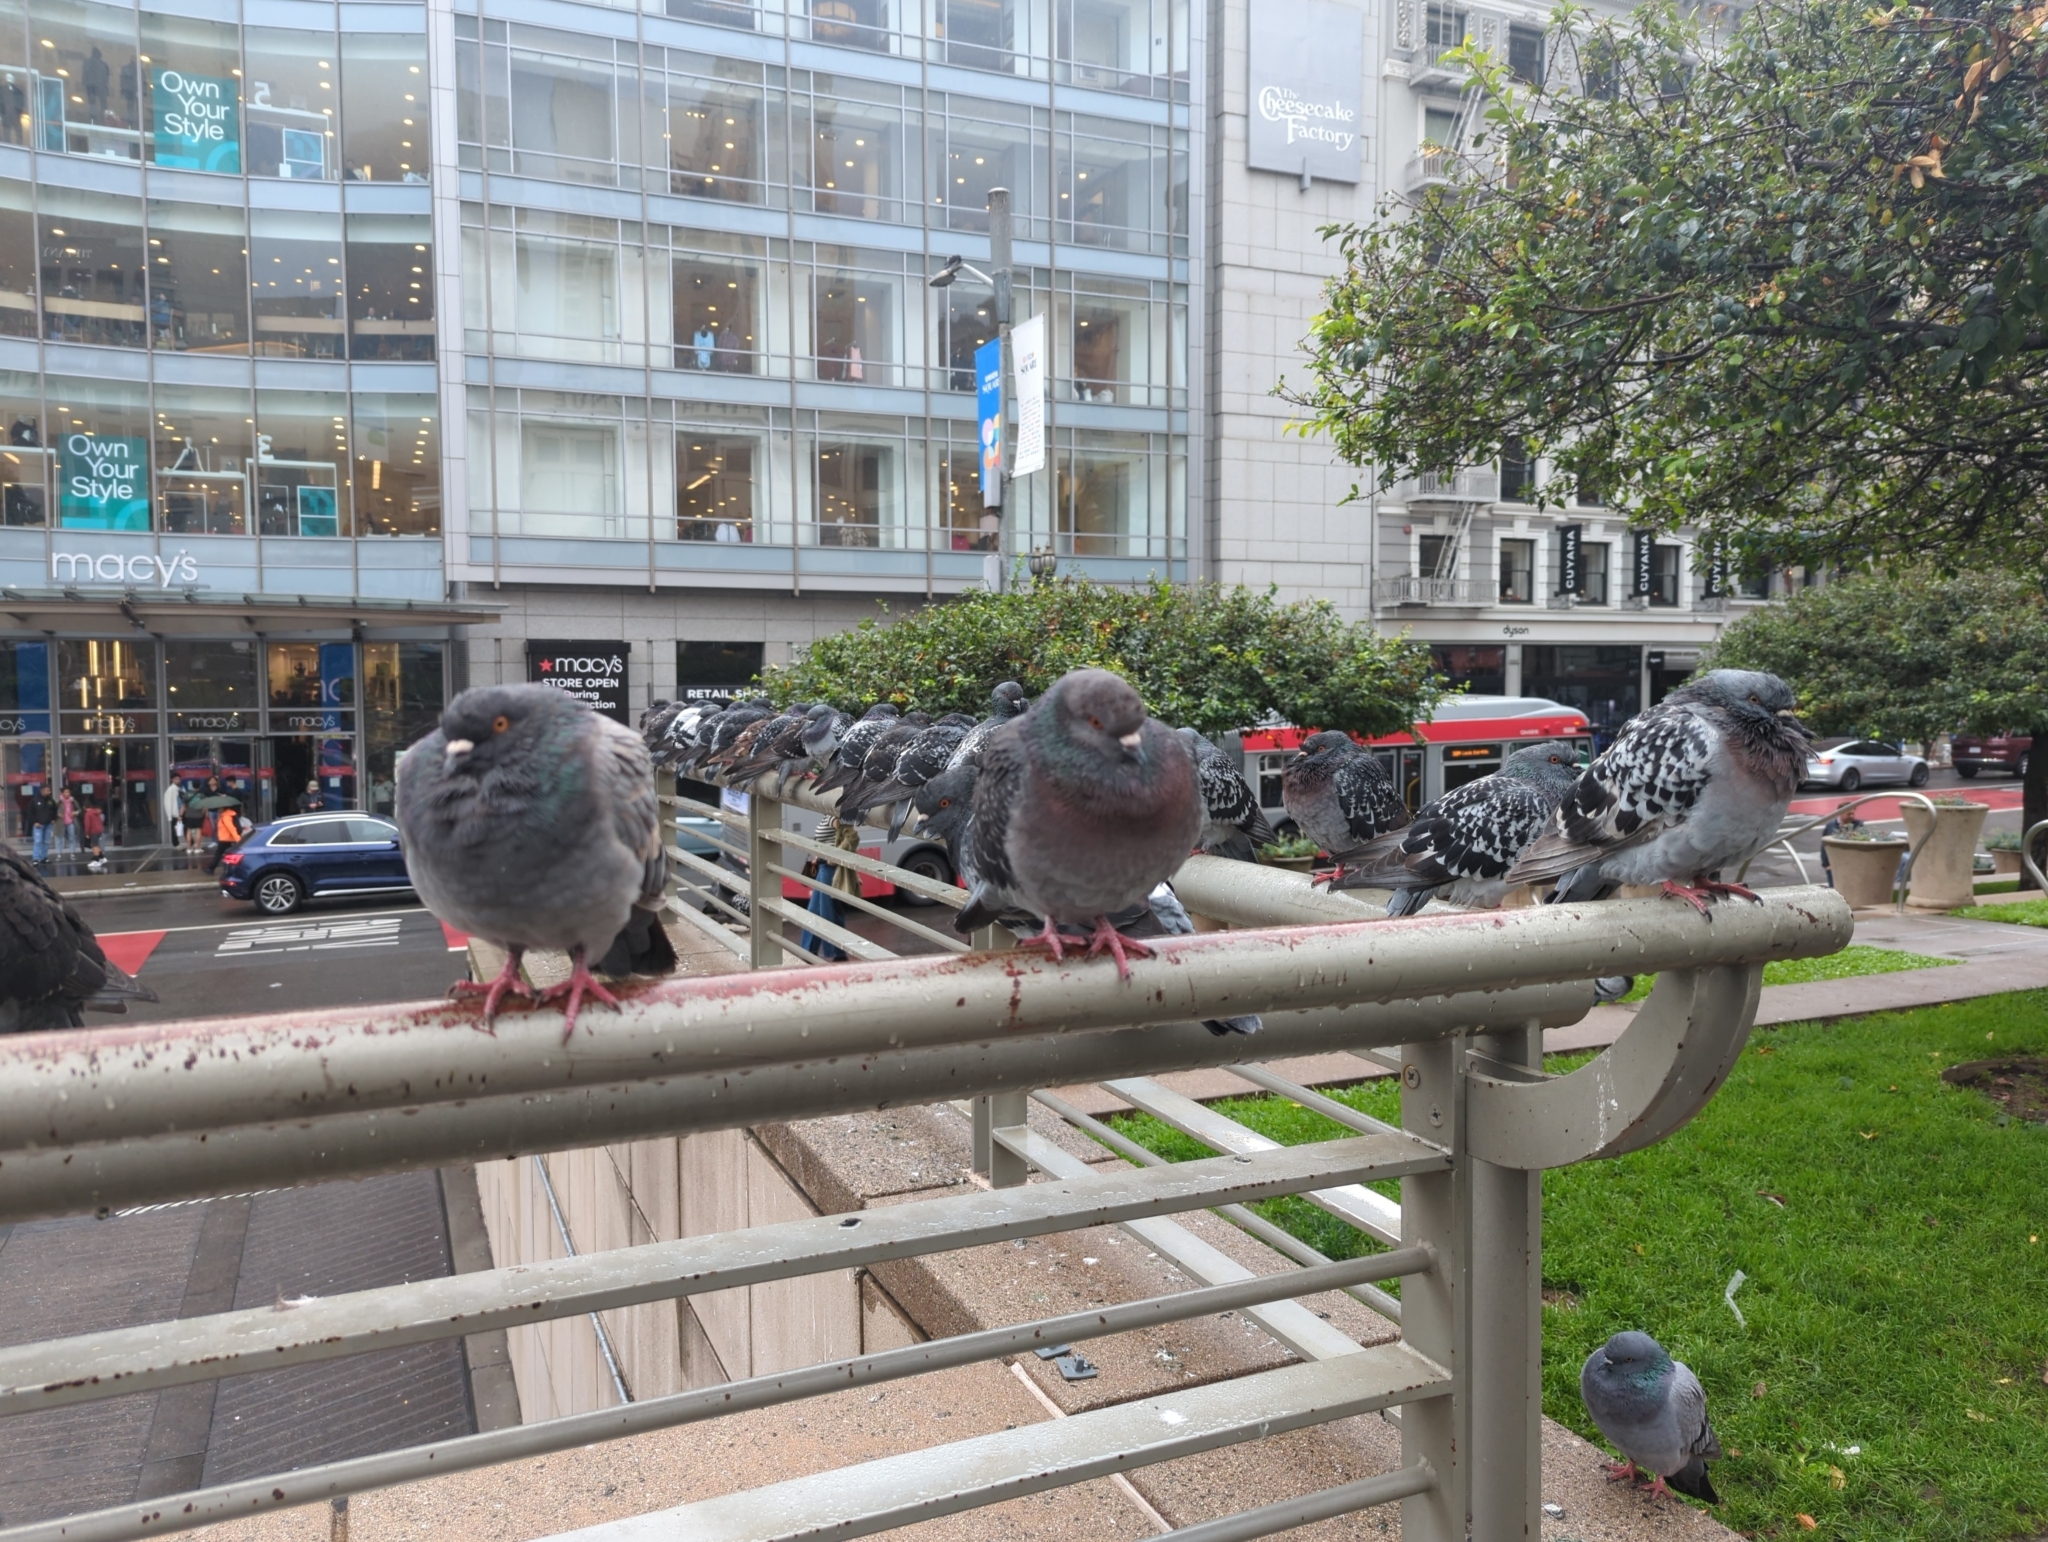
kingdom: Animalia
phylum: Chordata
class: Aves
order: Columbiformes
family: Columbidae
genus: Columba
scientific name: Columba livia
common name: Rock pigeon
